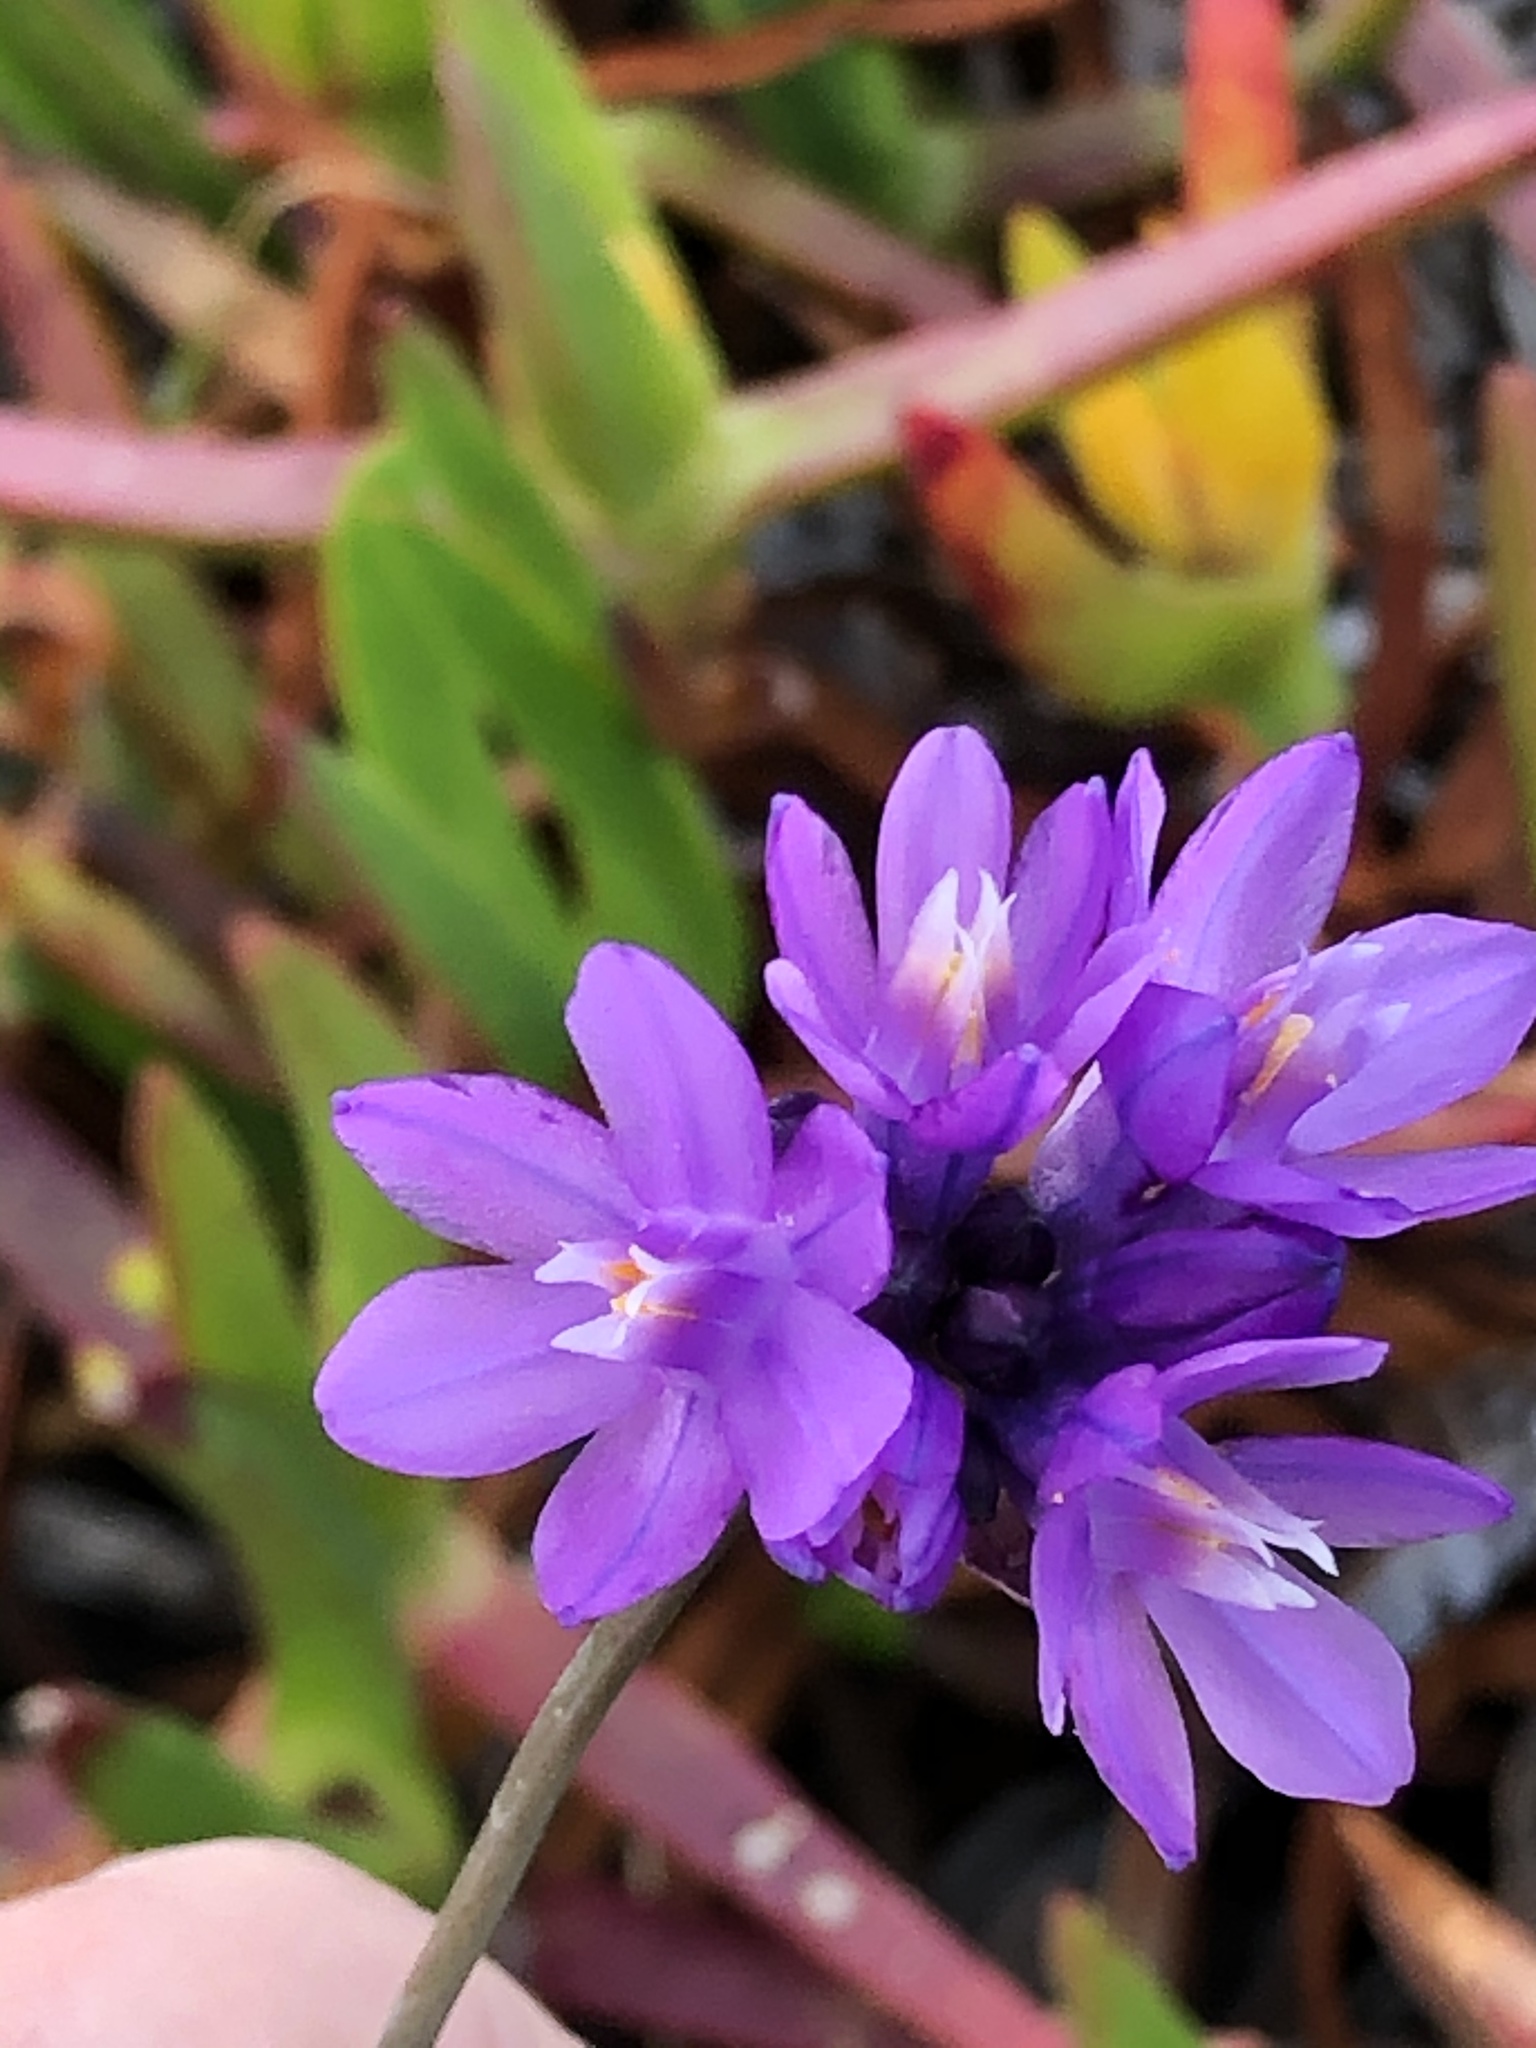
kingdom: Plantae
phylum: Tracheophyta
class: Liliopsida
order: Asparagales
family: Asparagaceae
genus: Dipterostemon
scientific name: Dipterostemon capitatus
